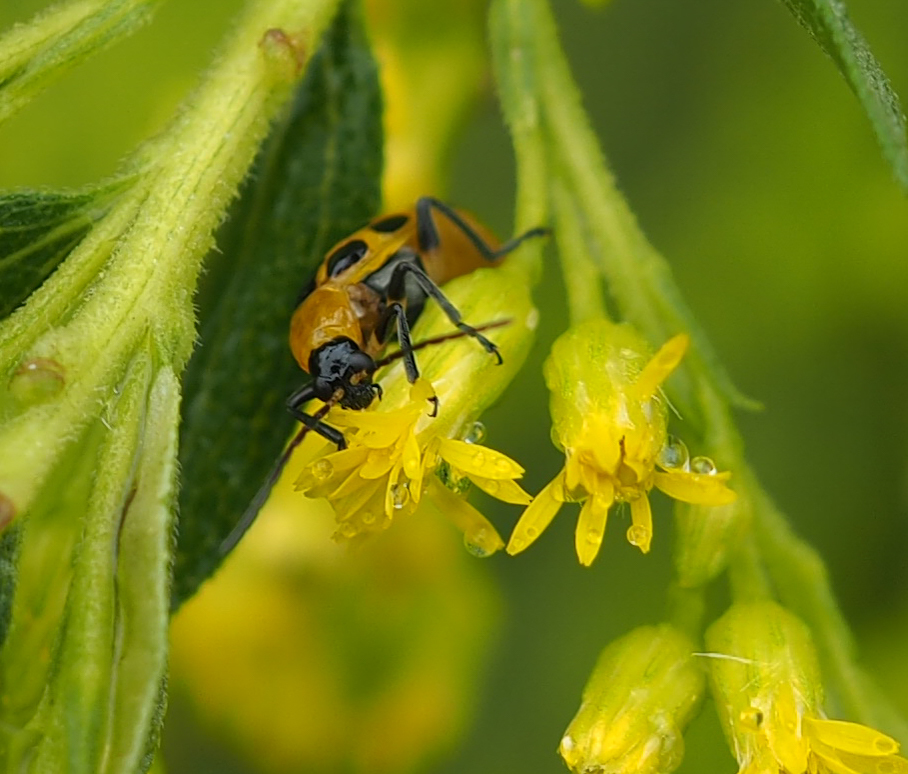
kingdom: Animalia
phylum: Arthropoda
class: Insecta
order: Coleoptera
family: Chrysomelidae
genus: Diabrotica
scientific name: Diabrotica undecimpunctata
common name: Spotted cucumber beetle
